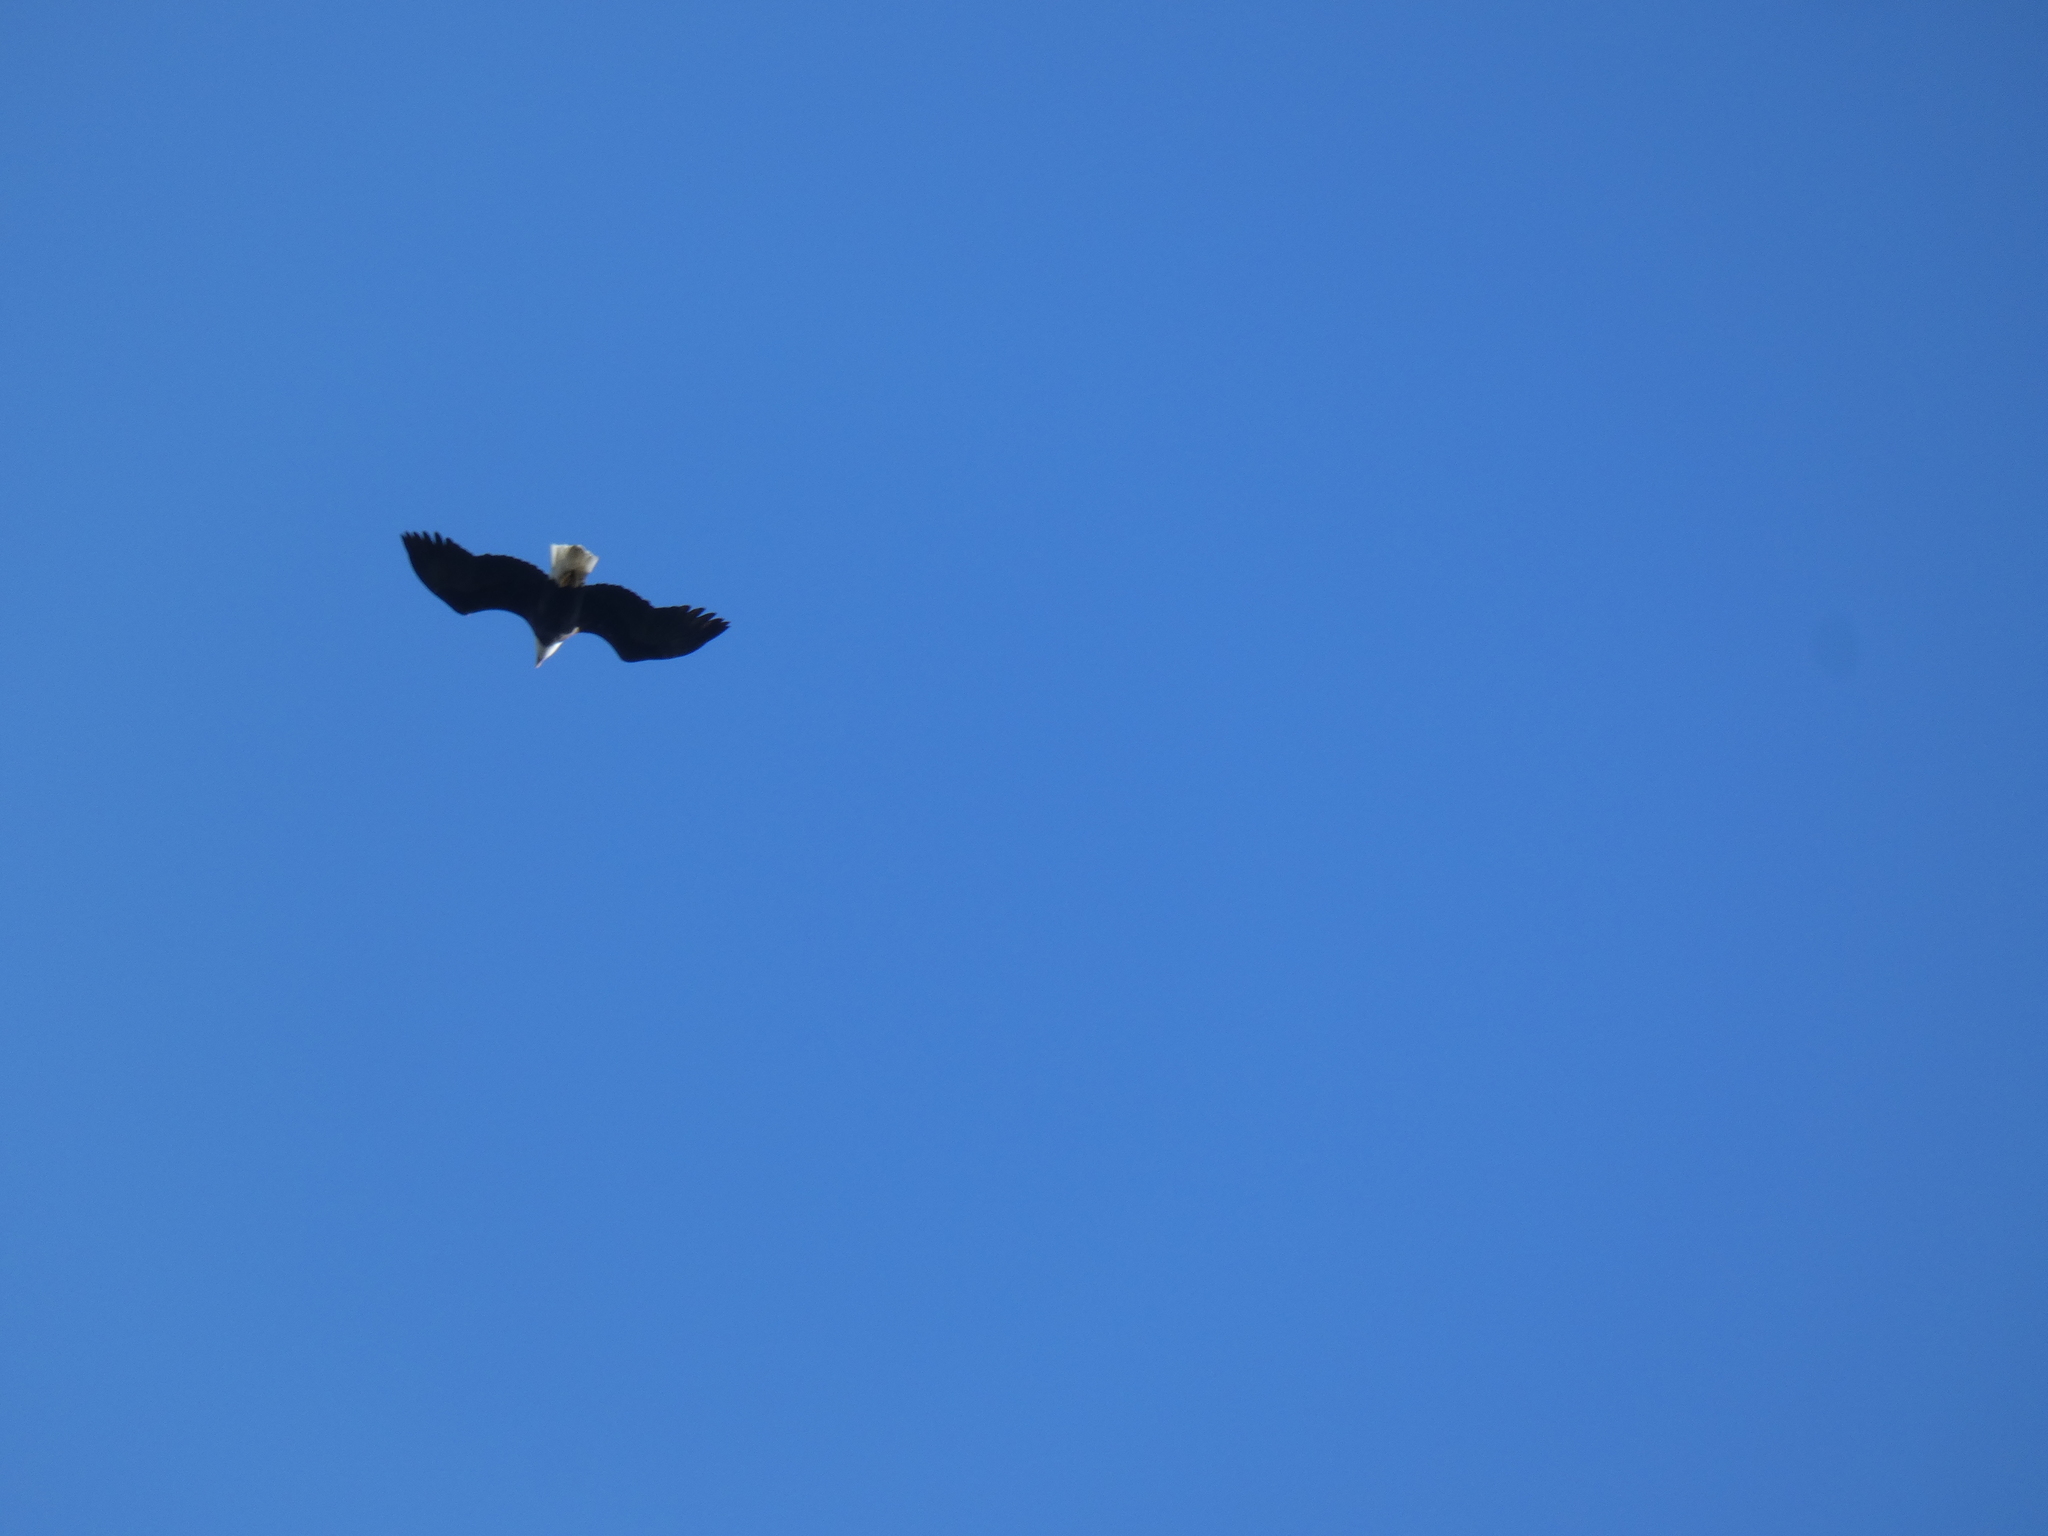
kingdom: Animalia
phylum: Chordata
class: Aves
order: Accipitriformes
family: Accipitridae
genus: Haliaeetus
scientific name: Haliaeetus leucocephalus
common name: Bald eagle
